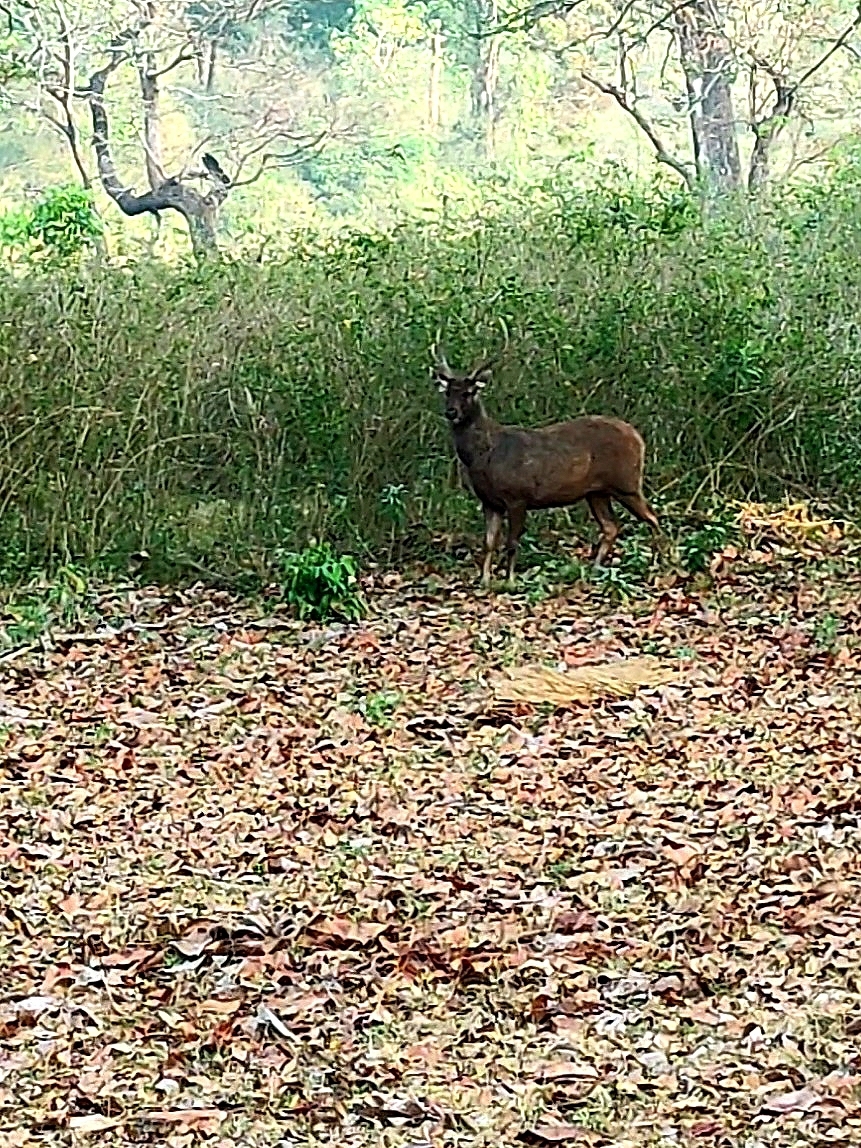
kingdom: Animalia
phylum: Chordata
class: Mammalia
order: Artiodactyla
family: Cervidae
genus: Rusa
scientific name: Rusa unicolor
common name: Sambar
